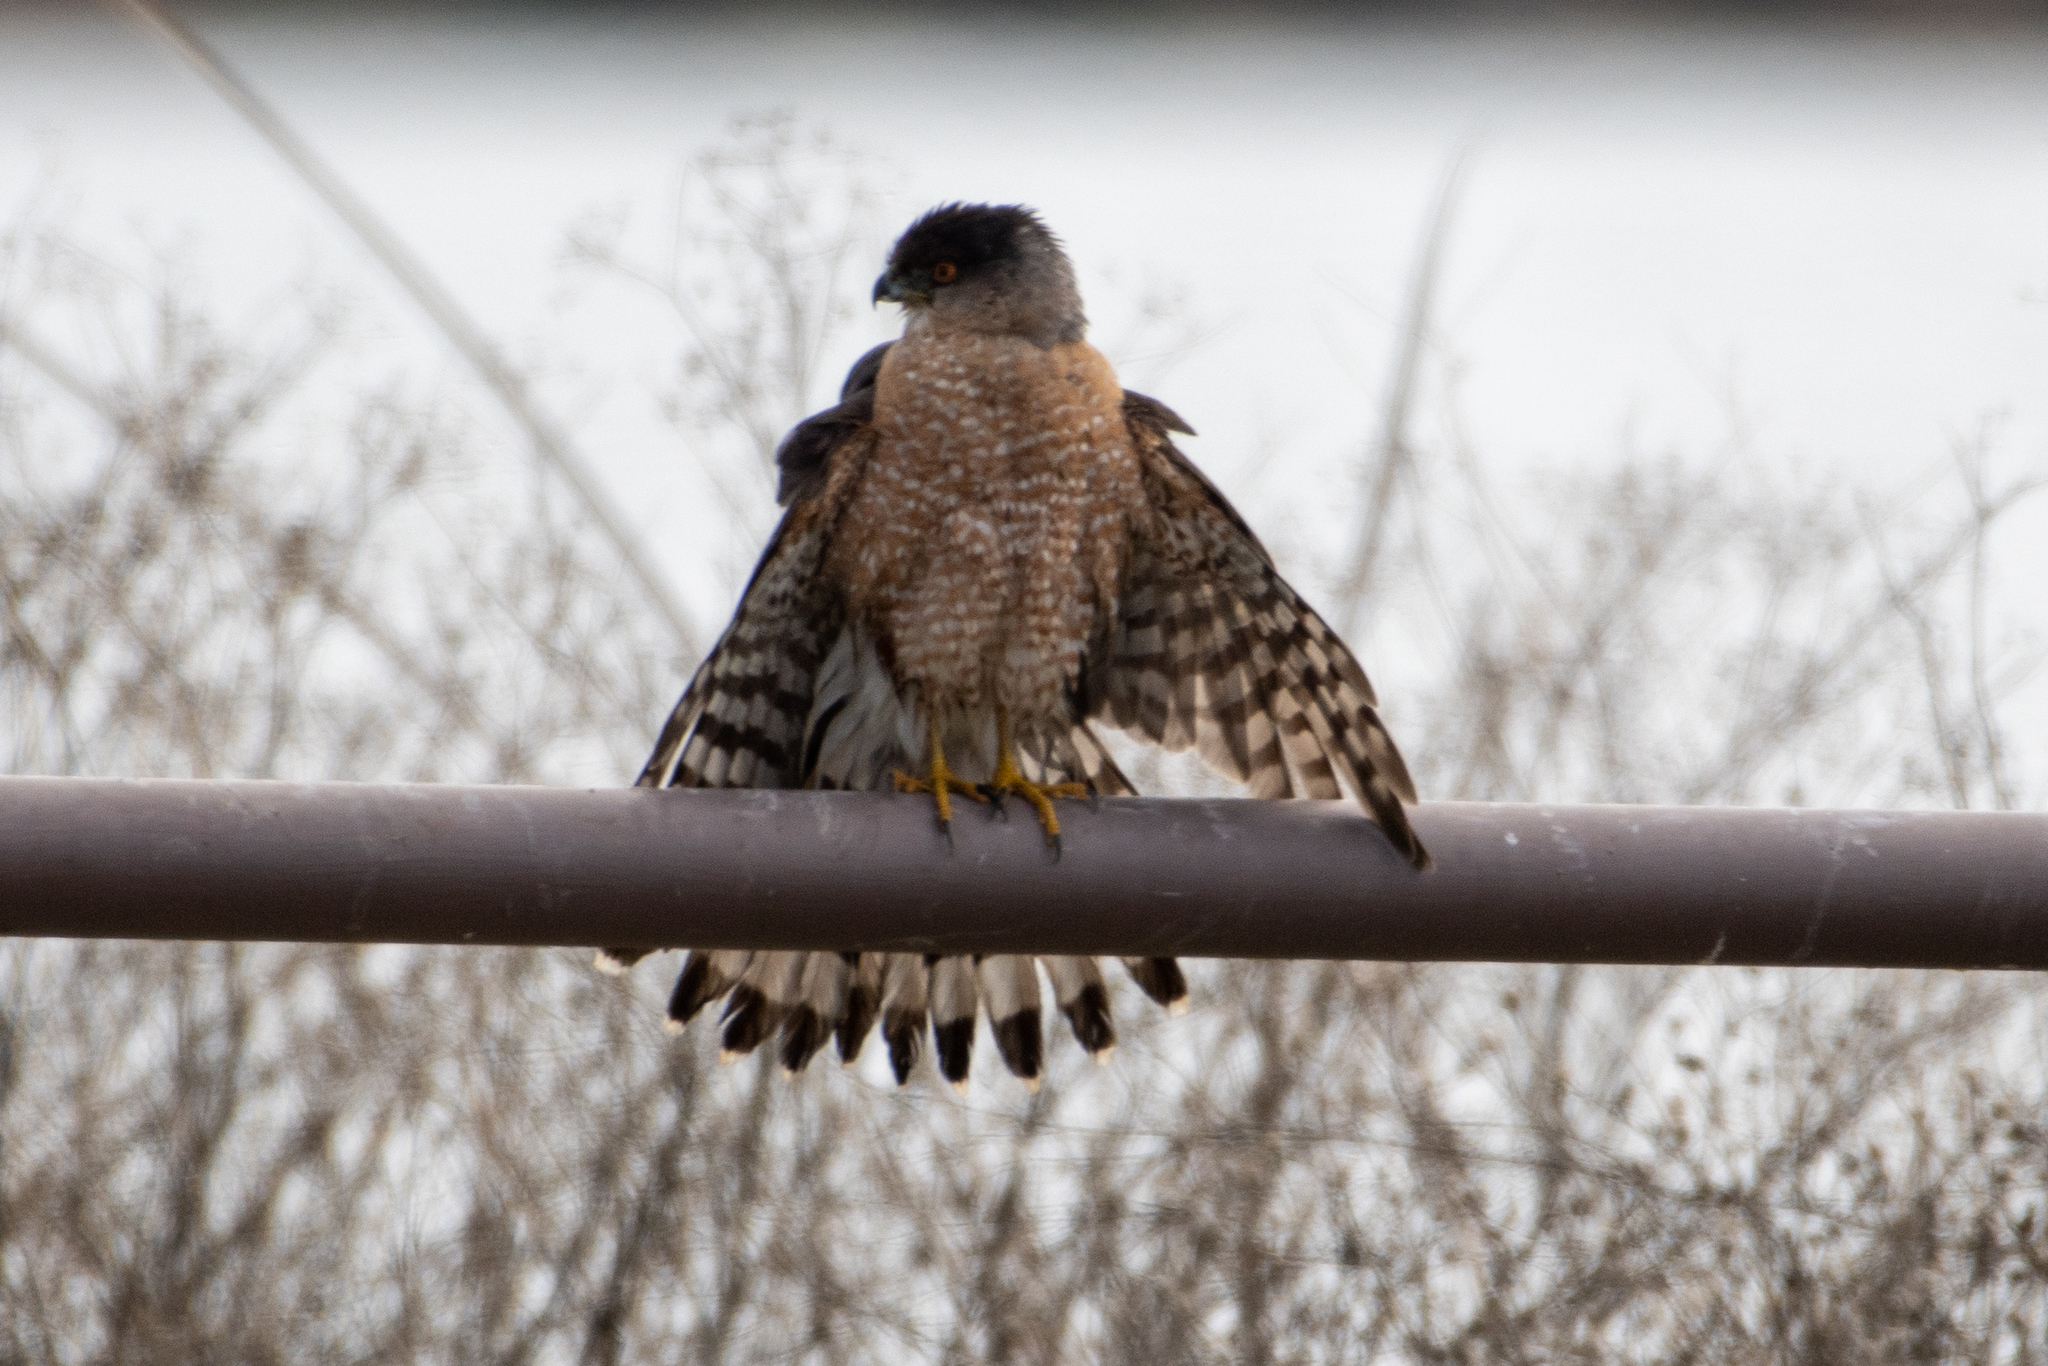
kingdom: Animalia
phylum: Chordata
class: Aves
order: Accipitriformes
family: Accipitridae
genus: Accipiter
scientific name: Accipiter cooperii
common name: Cooper's hawk
